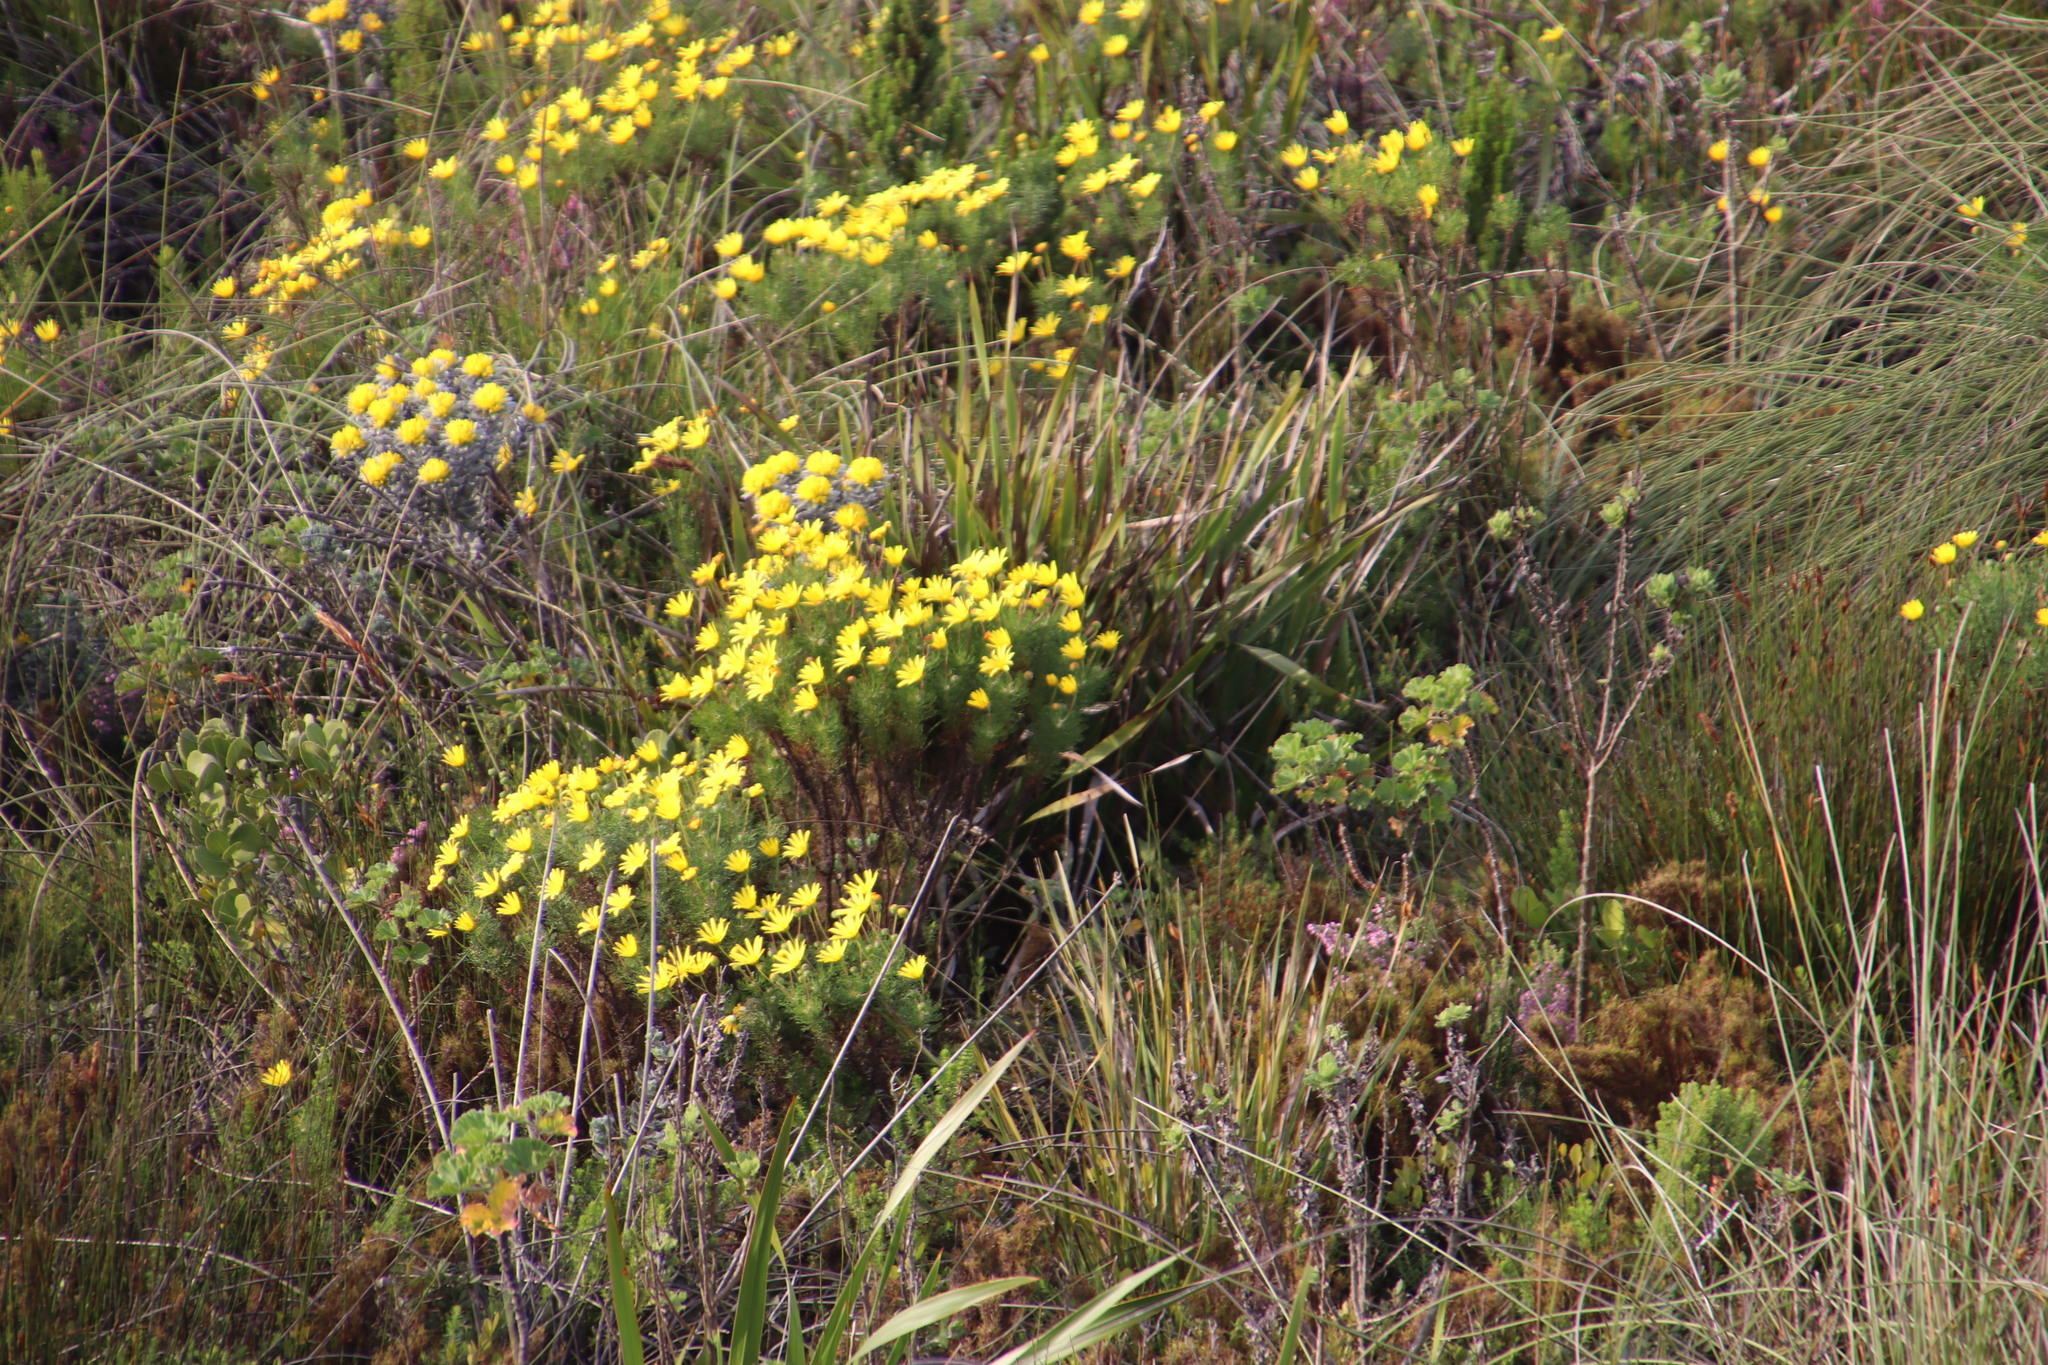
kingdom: Plantae
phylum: Tracheophyta
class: Magnoliopsida
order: Asterales
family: Asteraceae
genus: Euryops
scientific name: Euryops abrotanifolius
